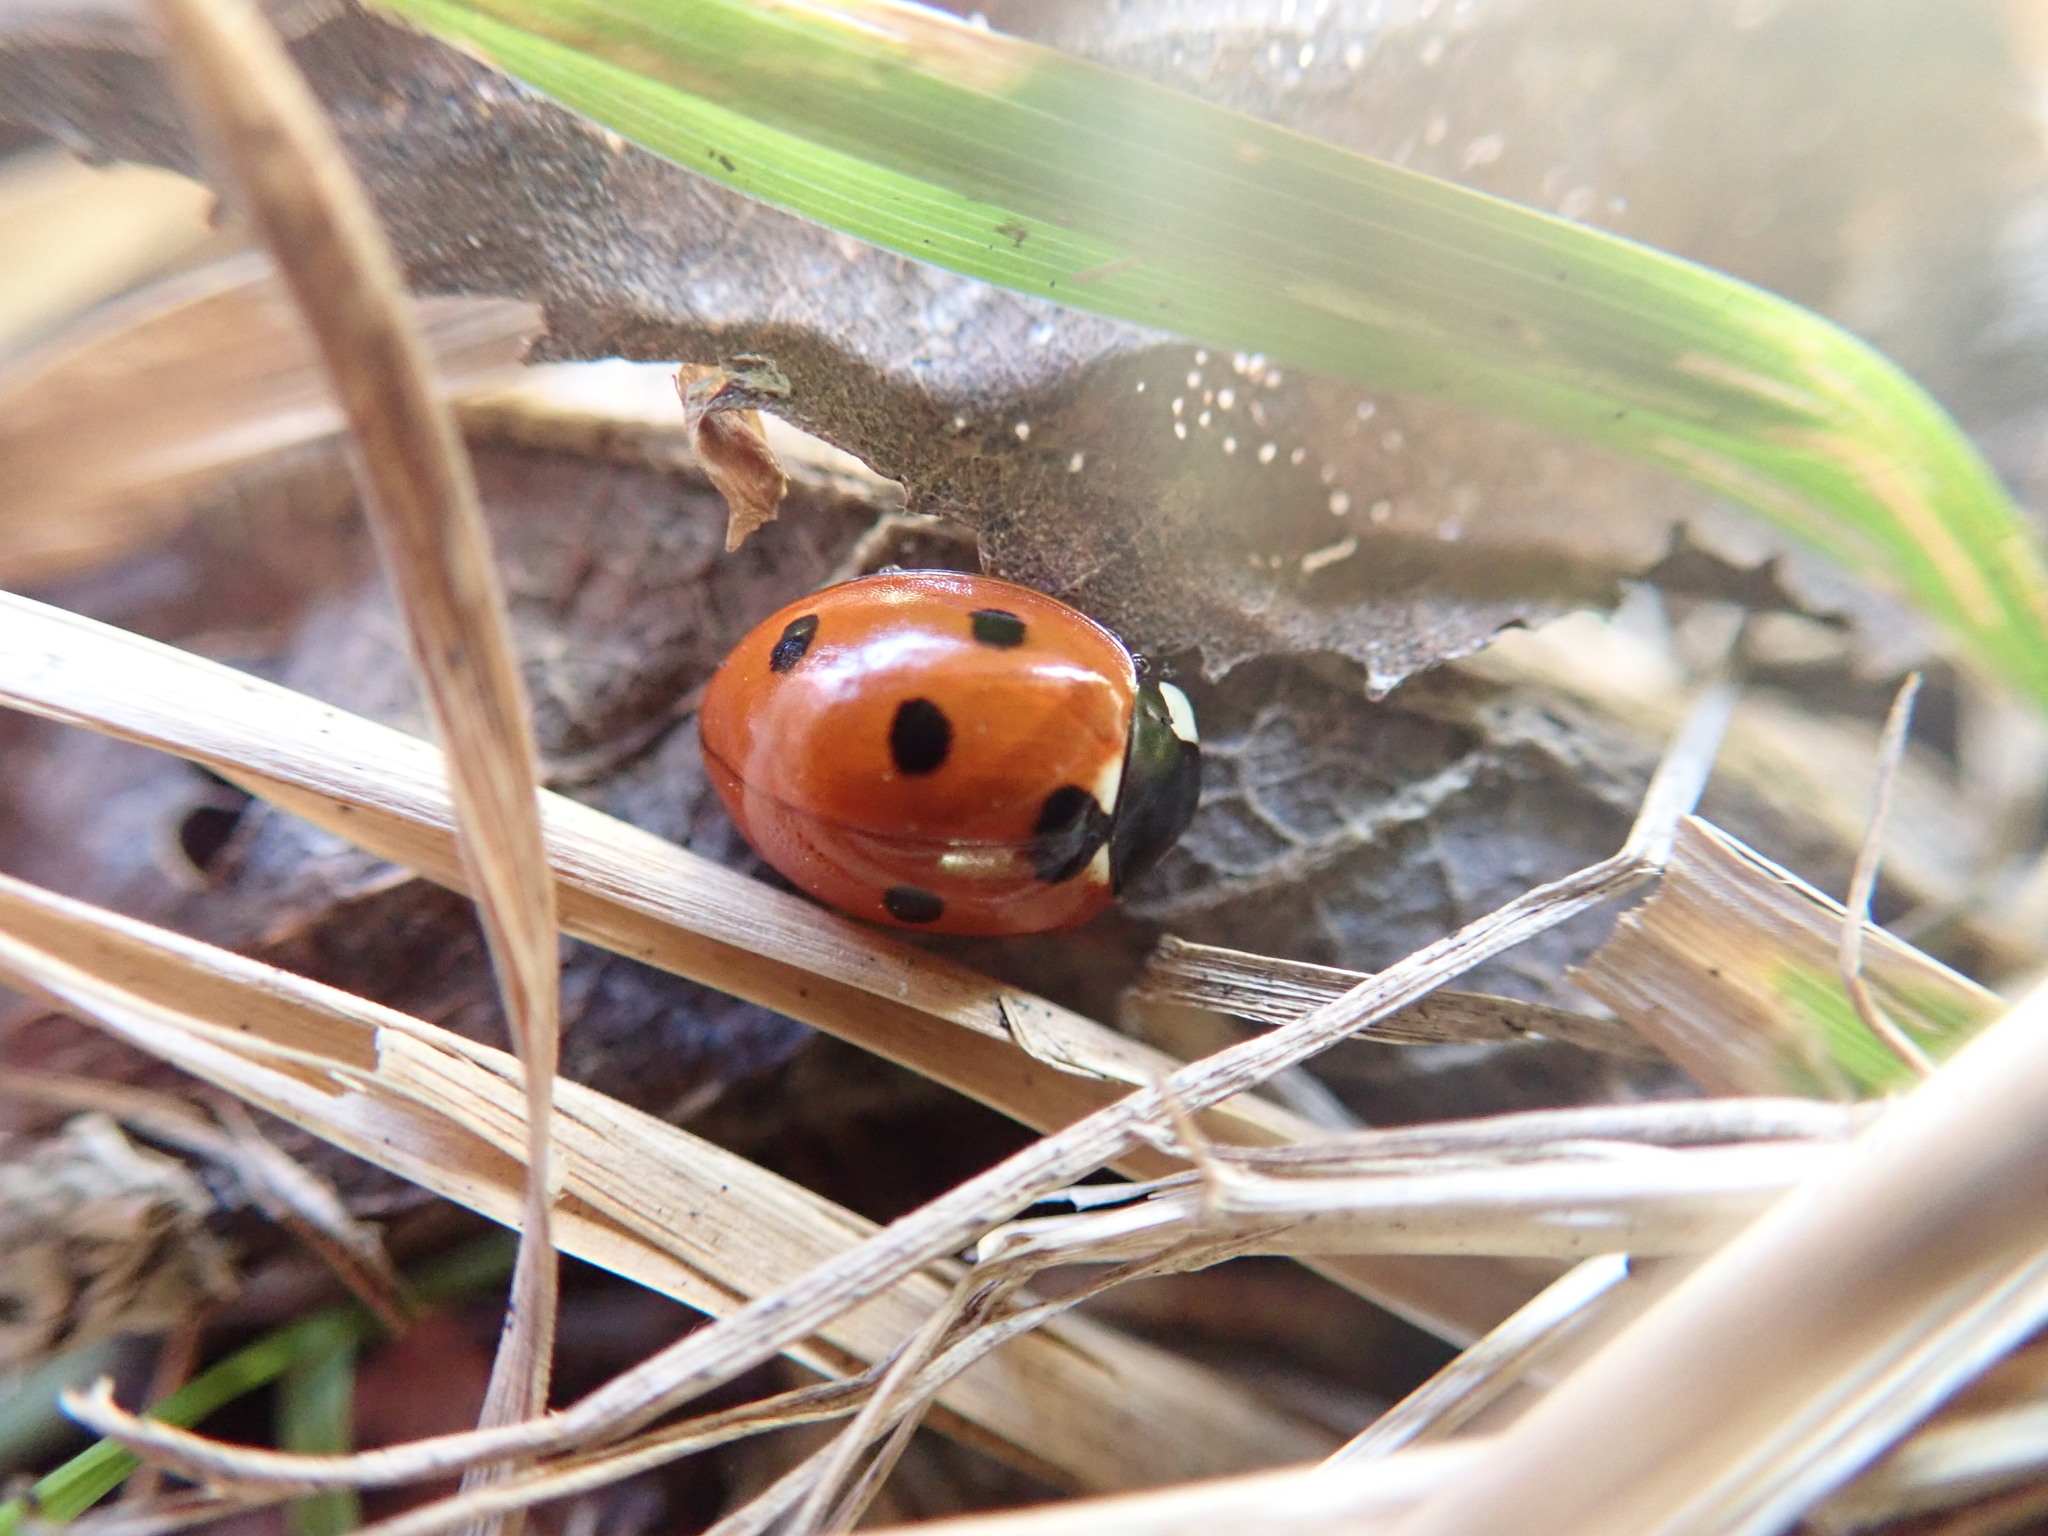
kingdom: Animalia
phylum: Arthropoda
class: Insecta
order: Coleoptera
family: Coccinellidae
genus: Coccinella
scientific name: Coccinella septempunctata
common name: Sevenspotted lady beetle
